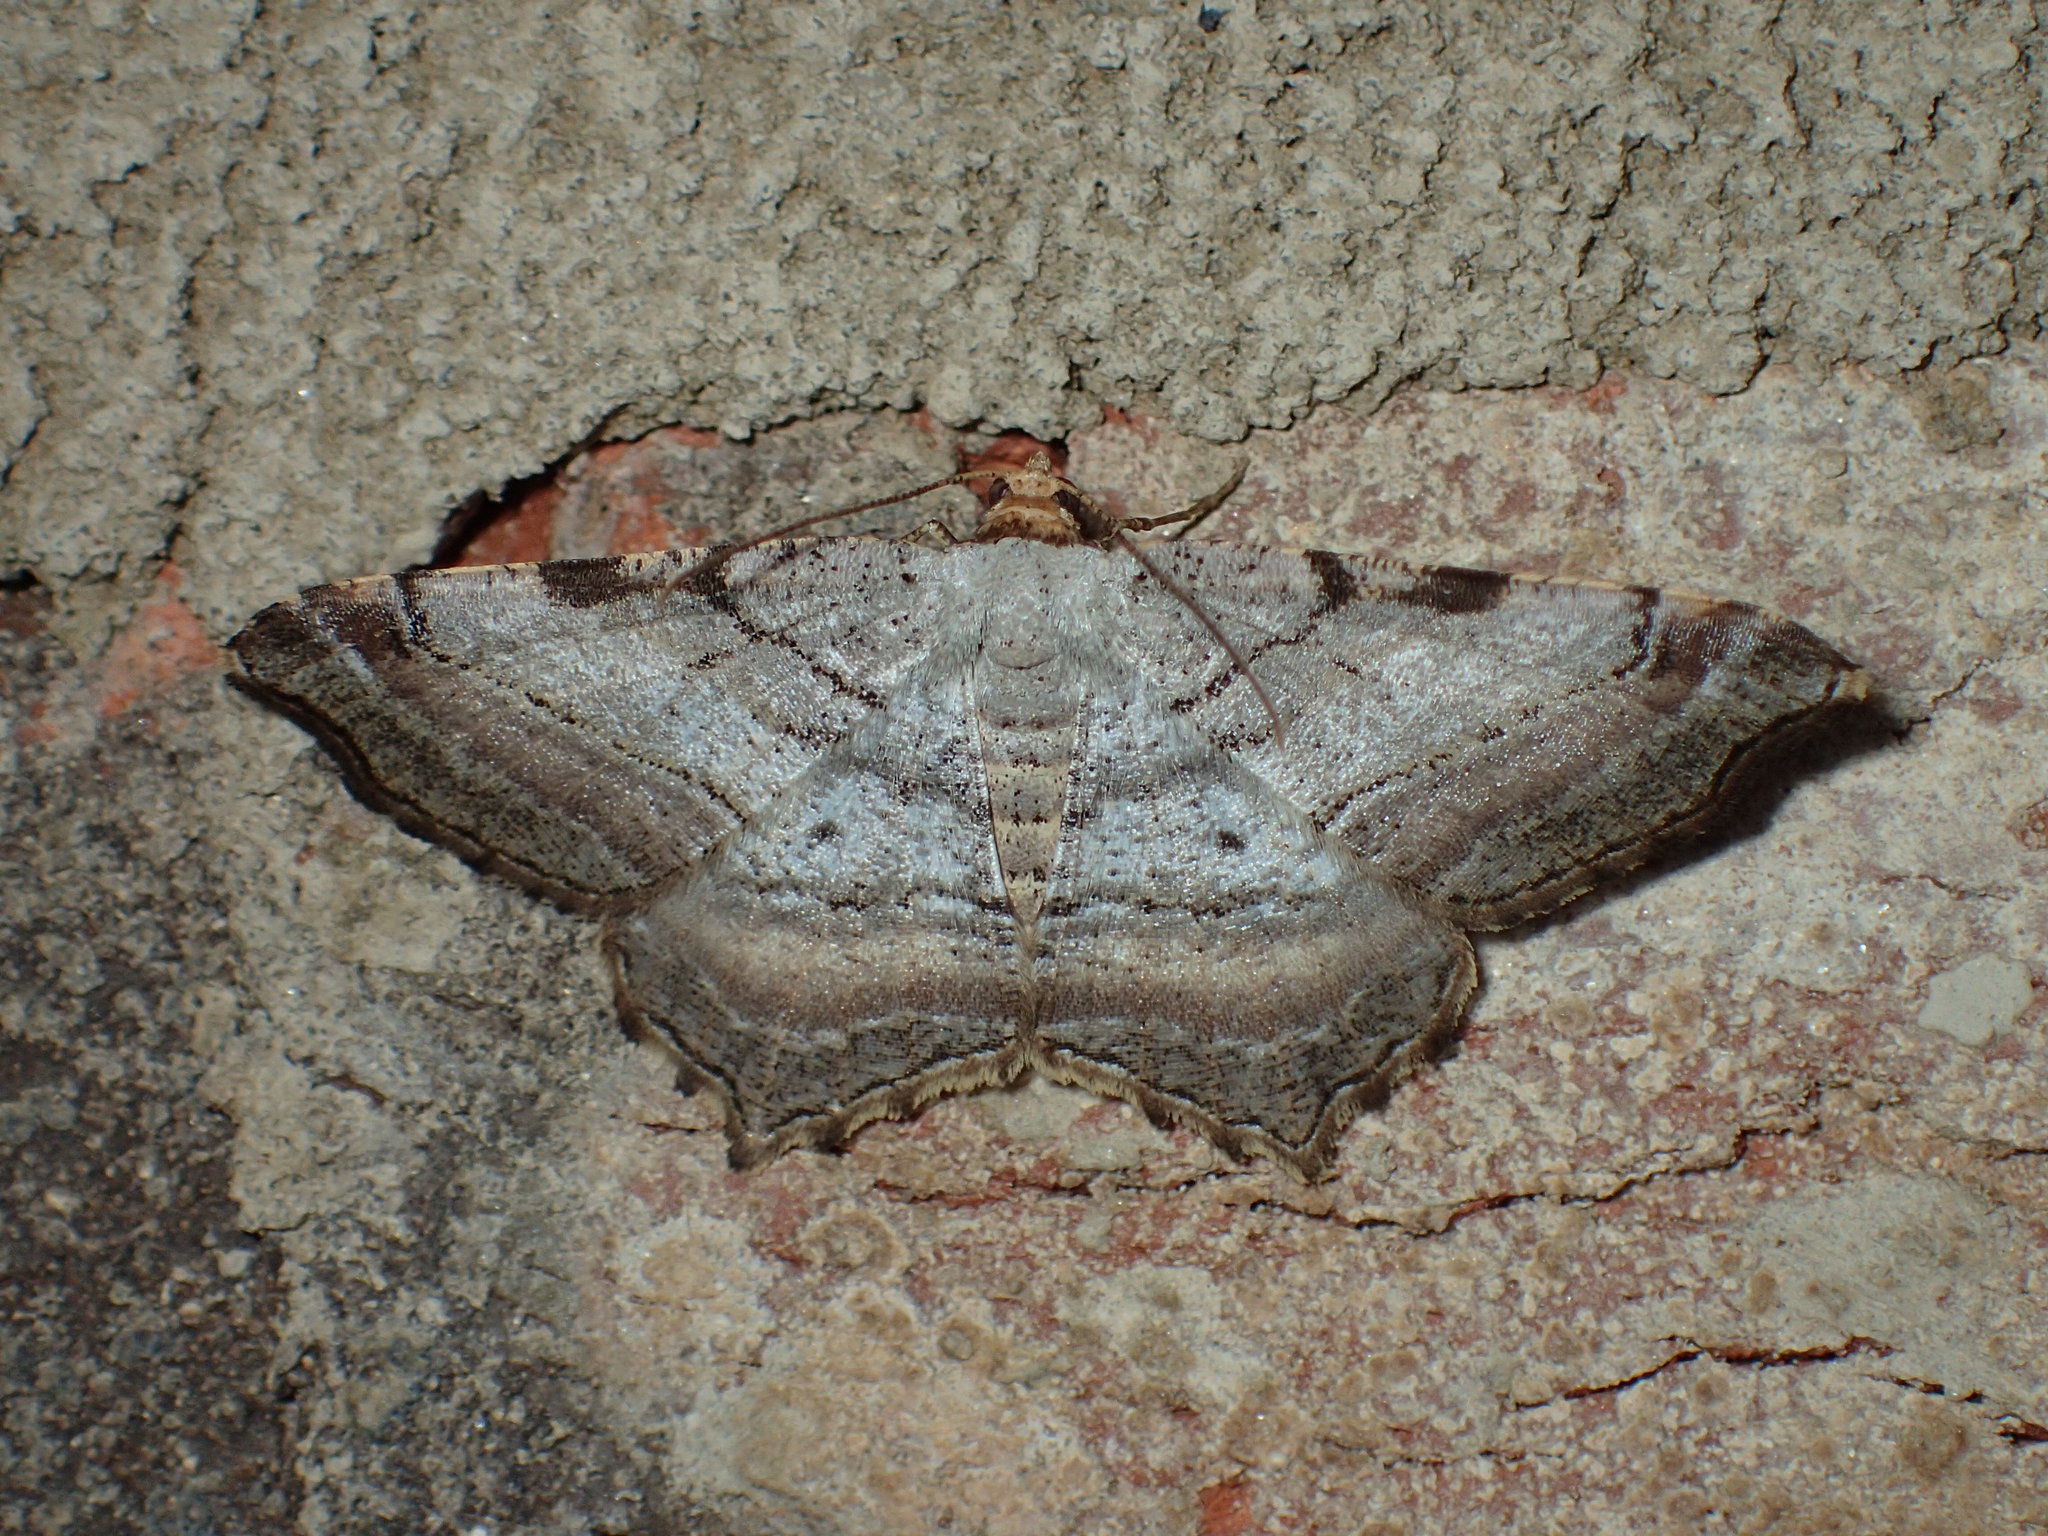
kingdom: Animalia
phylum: Arthropoda
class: Insecta
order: Lepidoptera
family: Geometridae
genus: Macaria
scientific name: Macaria multilineata
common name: Many-lined angle
